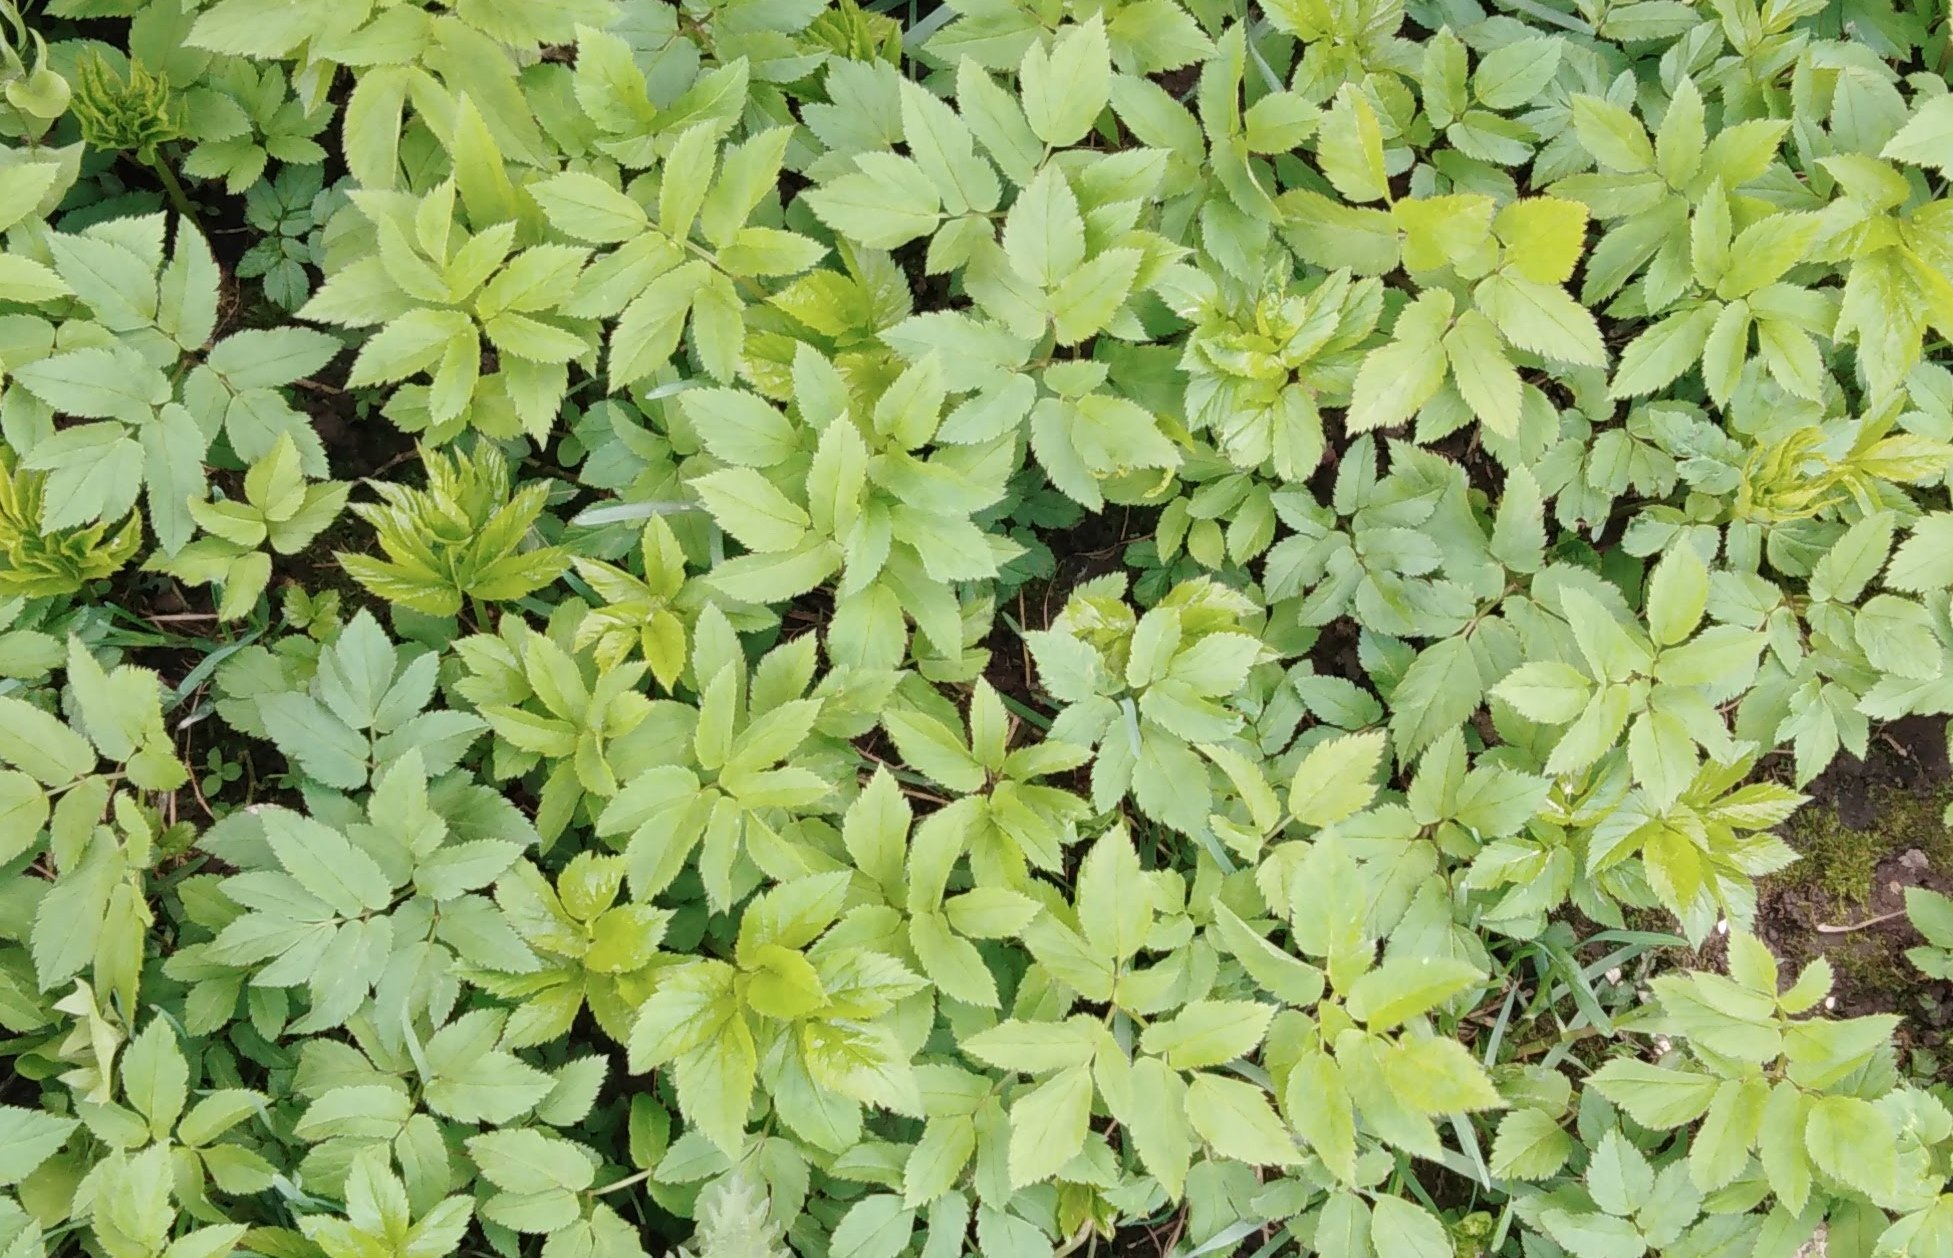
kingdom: Plantae
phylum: Tracheophyta
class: Magnoliopsida
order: Apiales
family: Apiaceae
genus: Aegopodium
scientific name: Aegopodium podagraria
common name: Ground-elder
